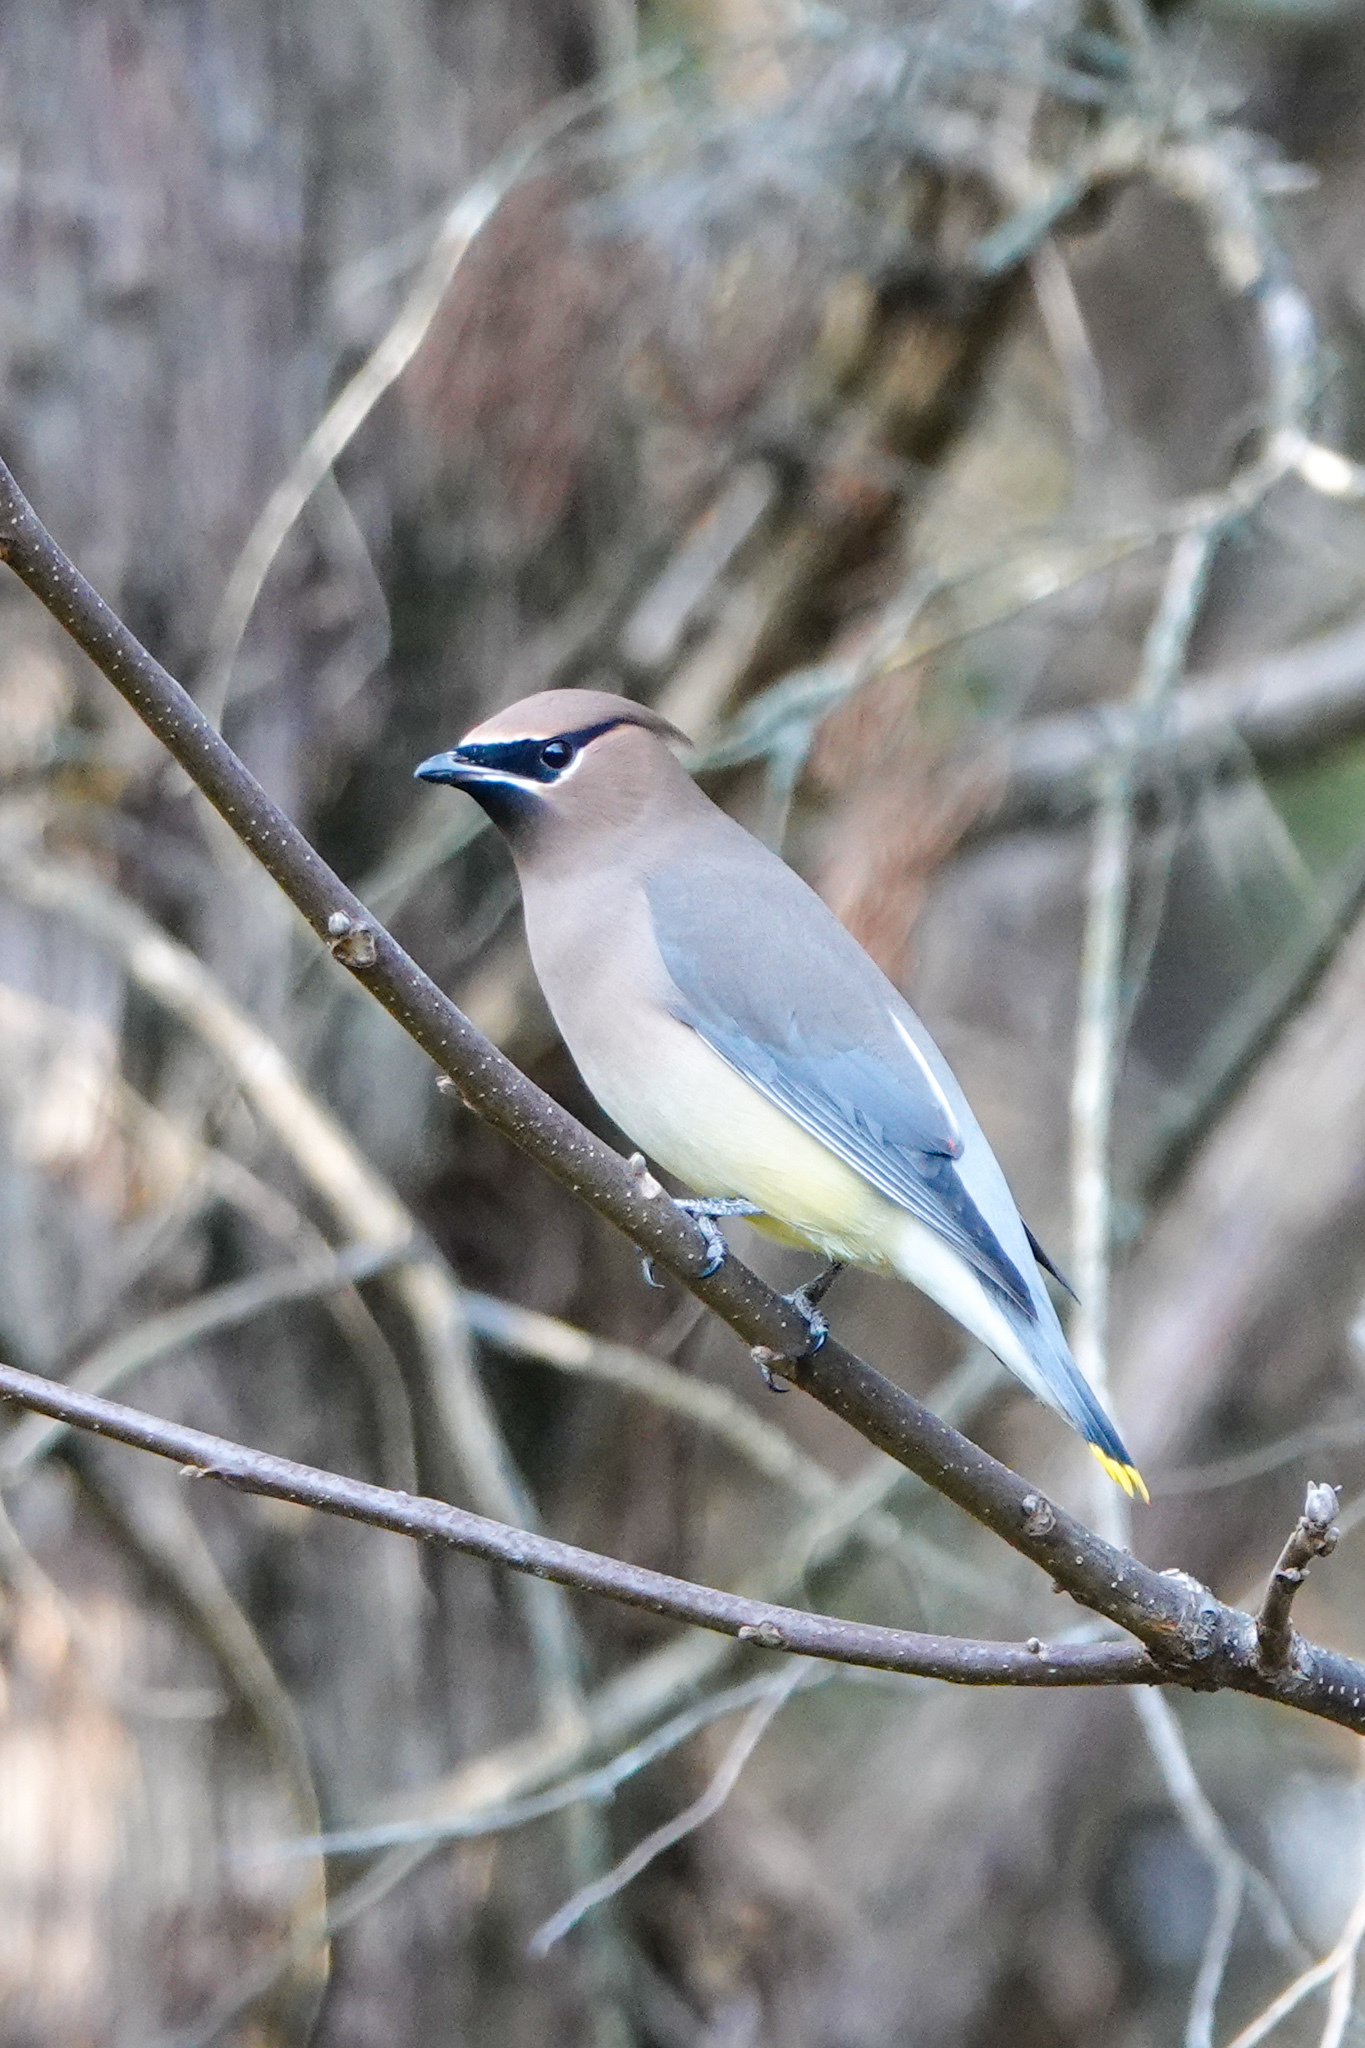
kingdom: Animalia
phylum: Chordata
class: Aves
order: Passeriformes
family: Bombycillidae
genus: Bombycilla
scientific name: Bombycilla cedrorum
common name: Cedar waxwing
